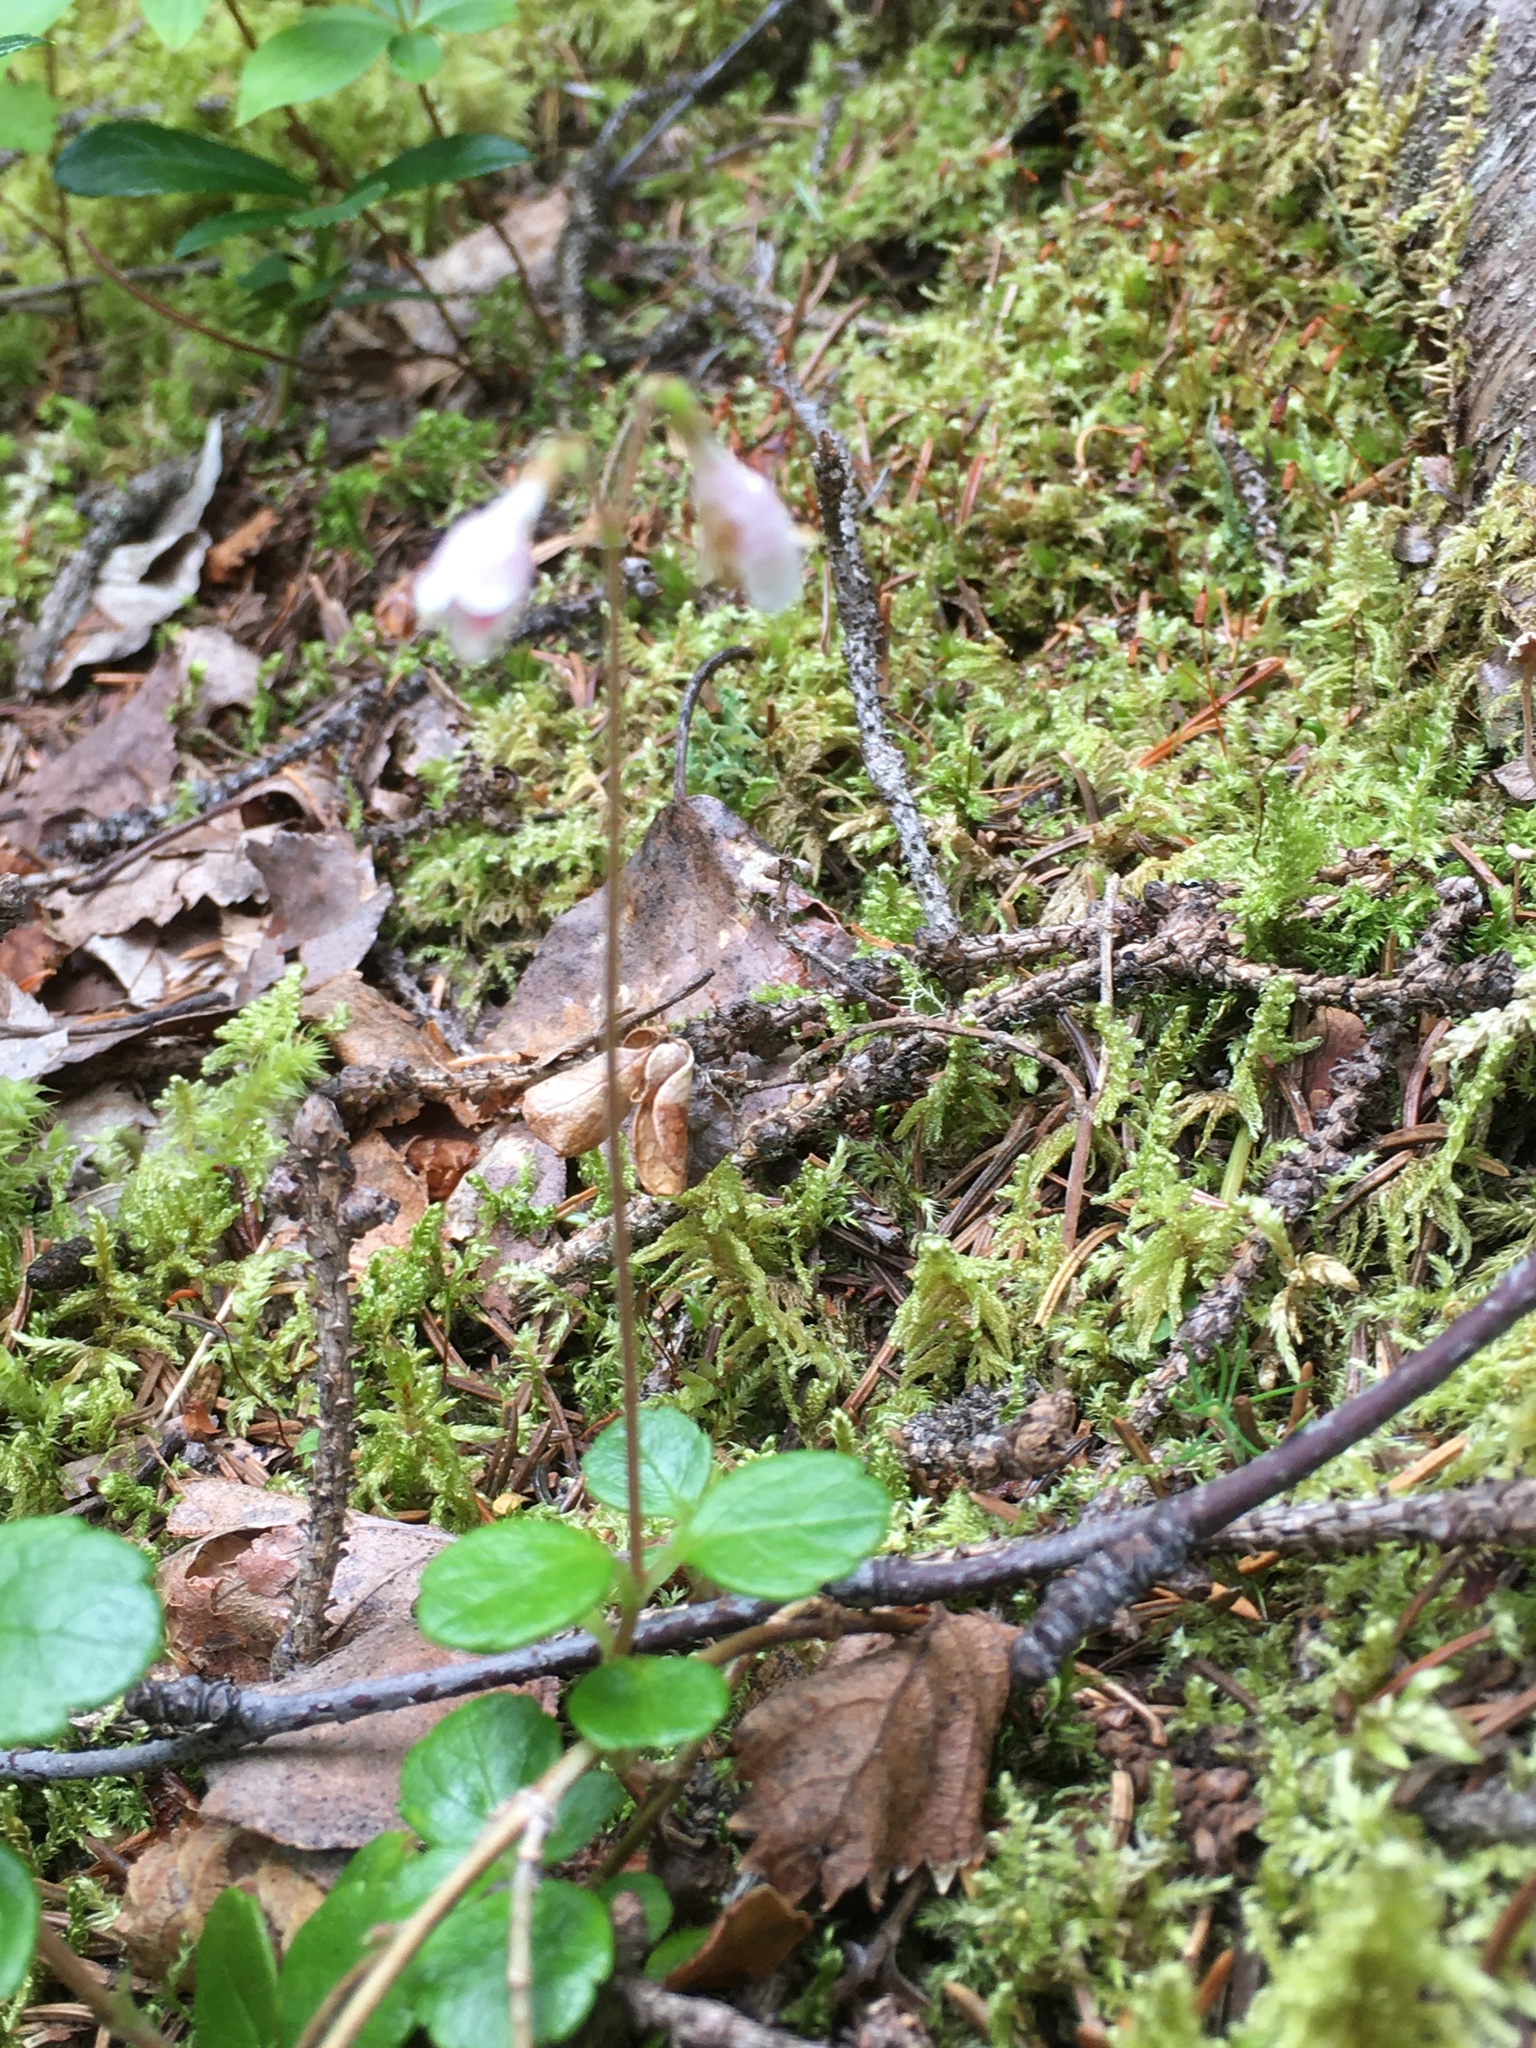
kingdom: Plantae
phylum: Tracheophyta
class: Magnoliopsida
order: Dipsacales
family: Caprifoliaceae
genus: Linnaea
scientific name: Linnaea borealis
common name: Twinflower
